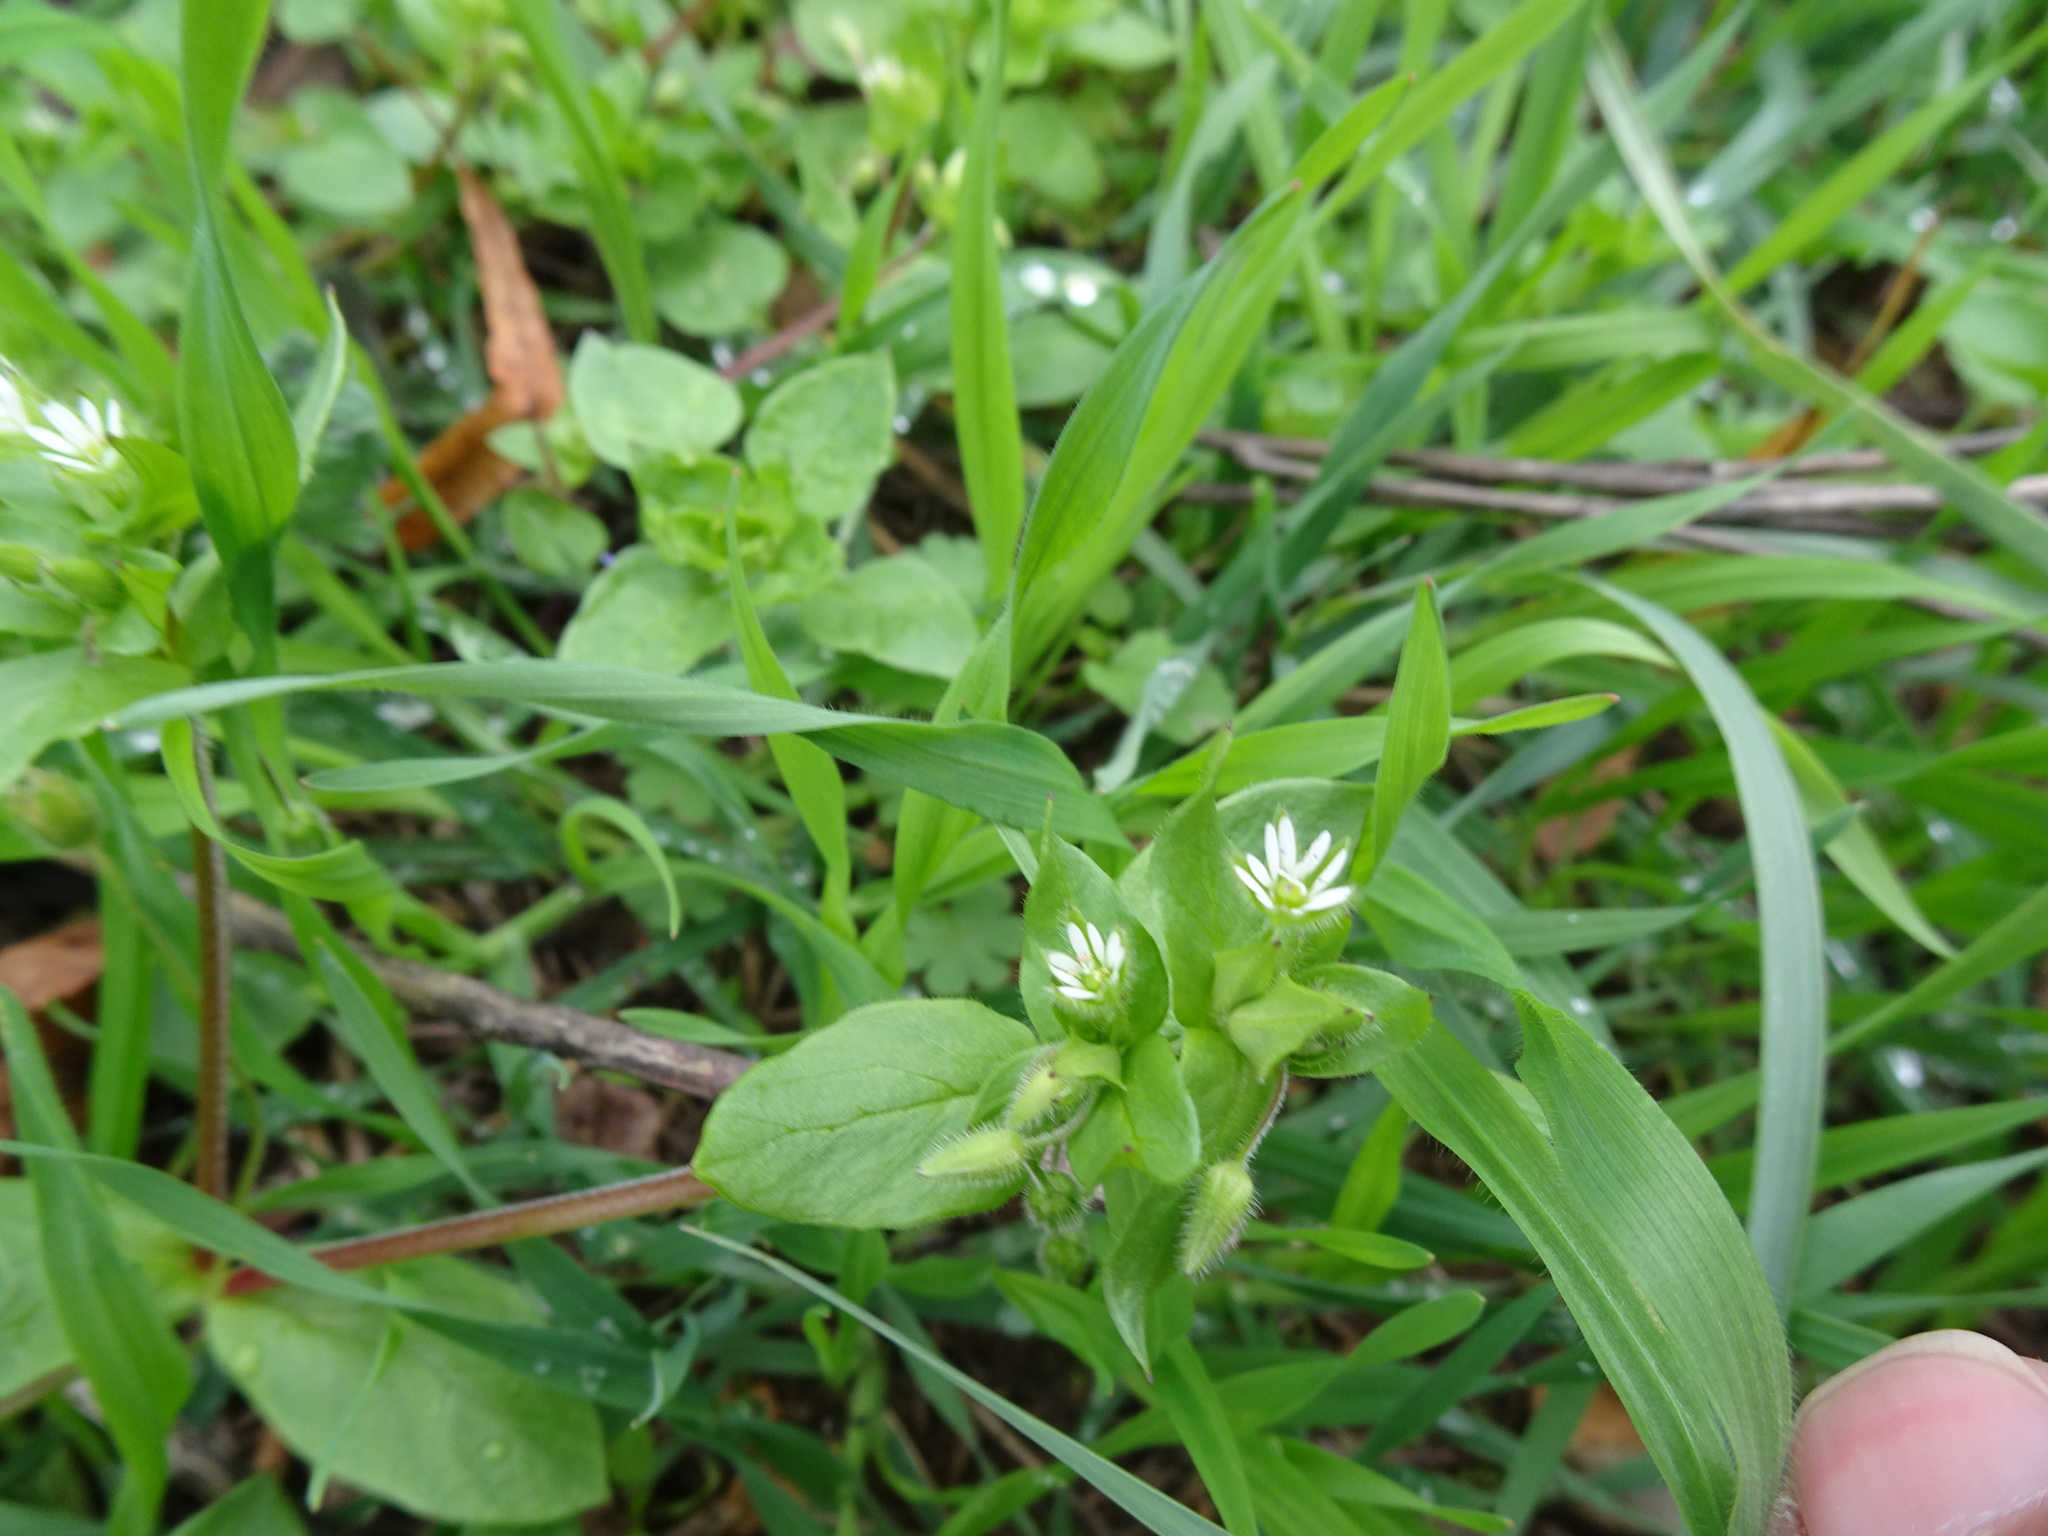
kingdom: Plantae
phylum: Tracheophyta
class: Magnoliopsida
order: Caryophyllales
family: Caryophyllaceae
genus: Stellaria
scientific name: Stellaria media
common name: Common chickweed
